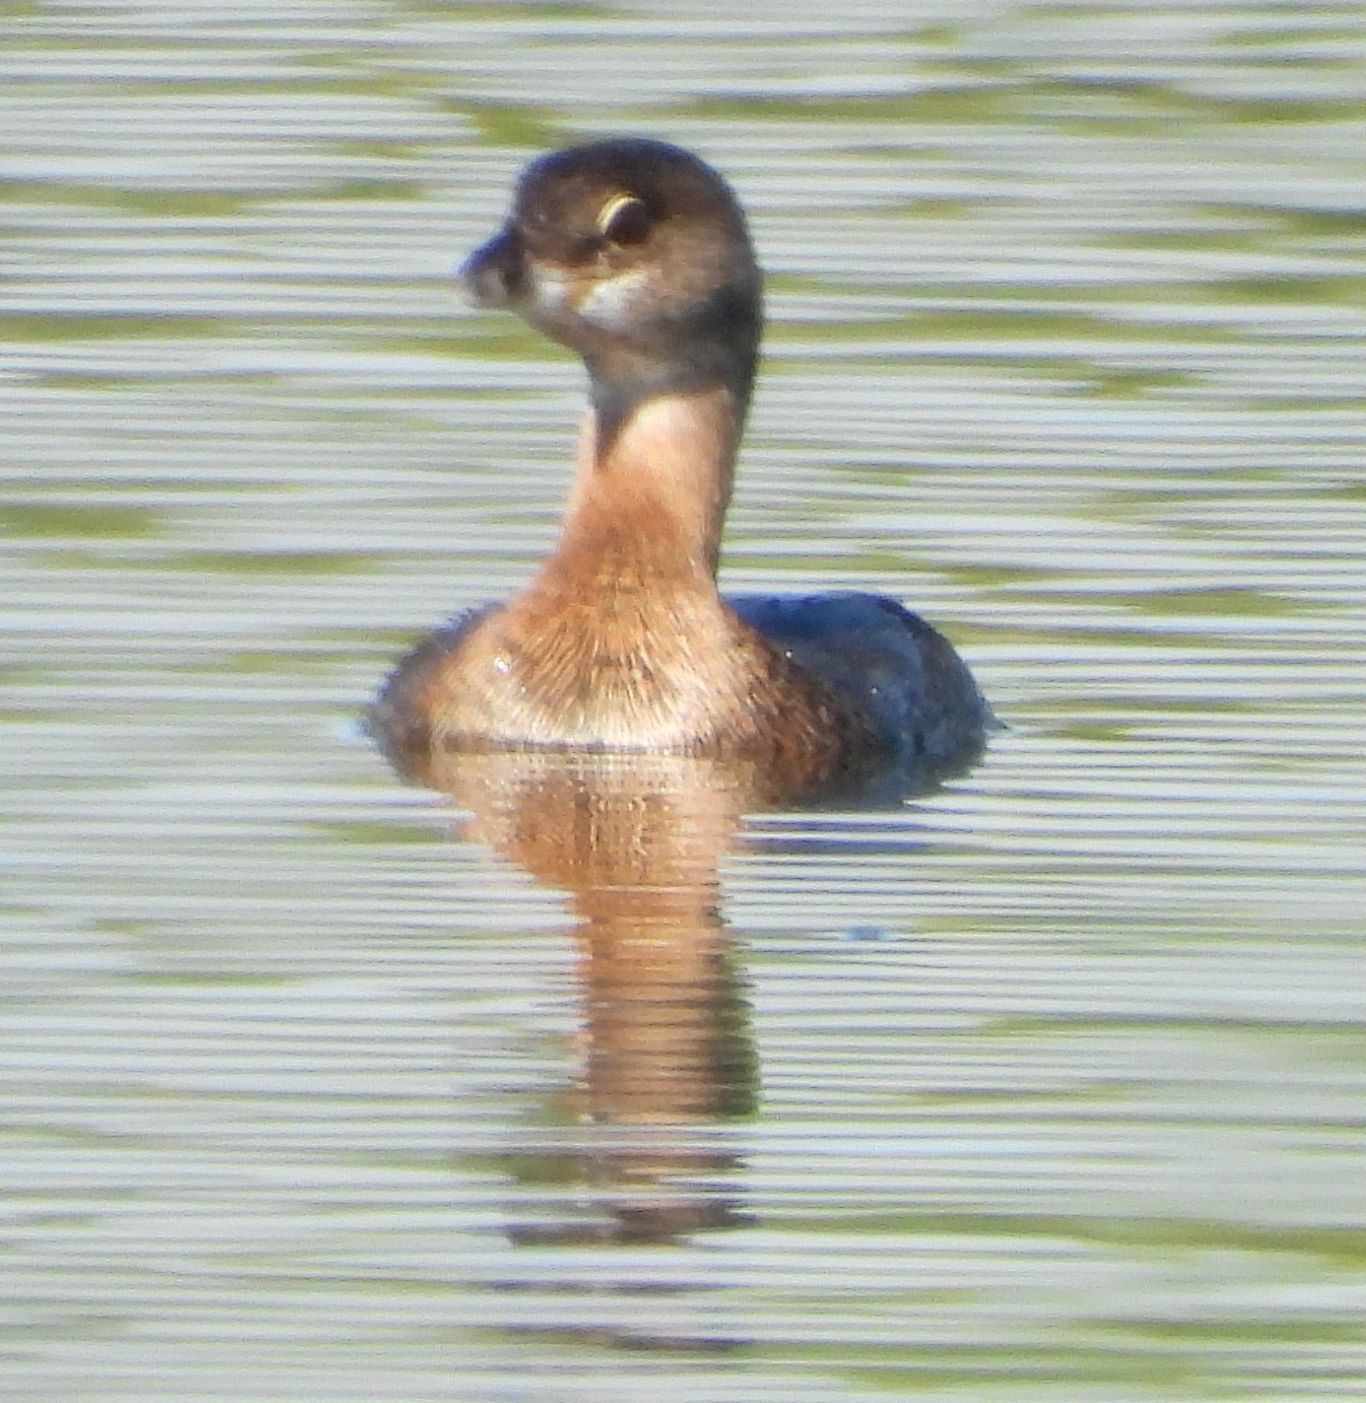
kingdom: Animalia
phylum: Chordata
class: Aves
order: Podicipediformes
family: Podicipedidae
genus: Podilymbus
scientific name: Podilymbus podiceps
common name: Pied-billed grebe
